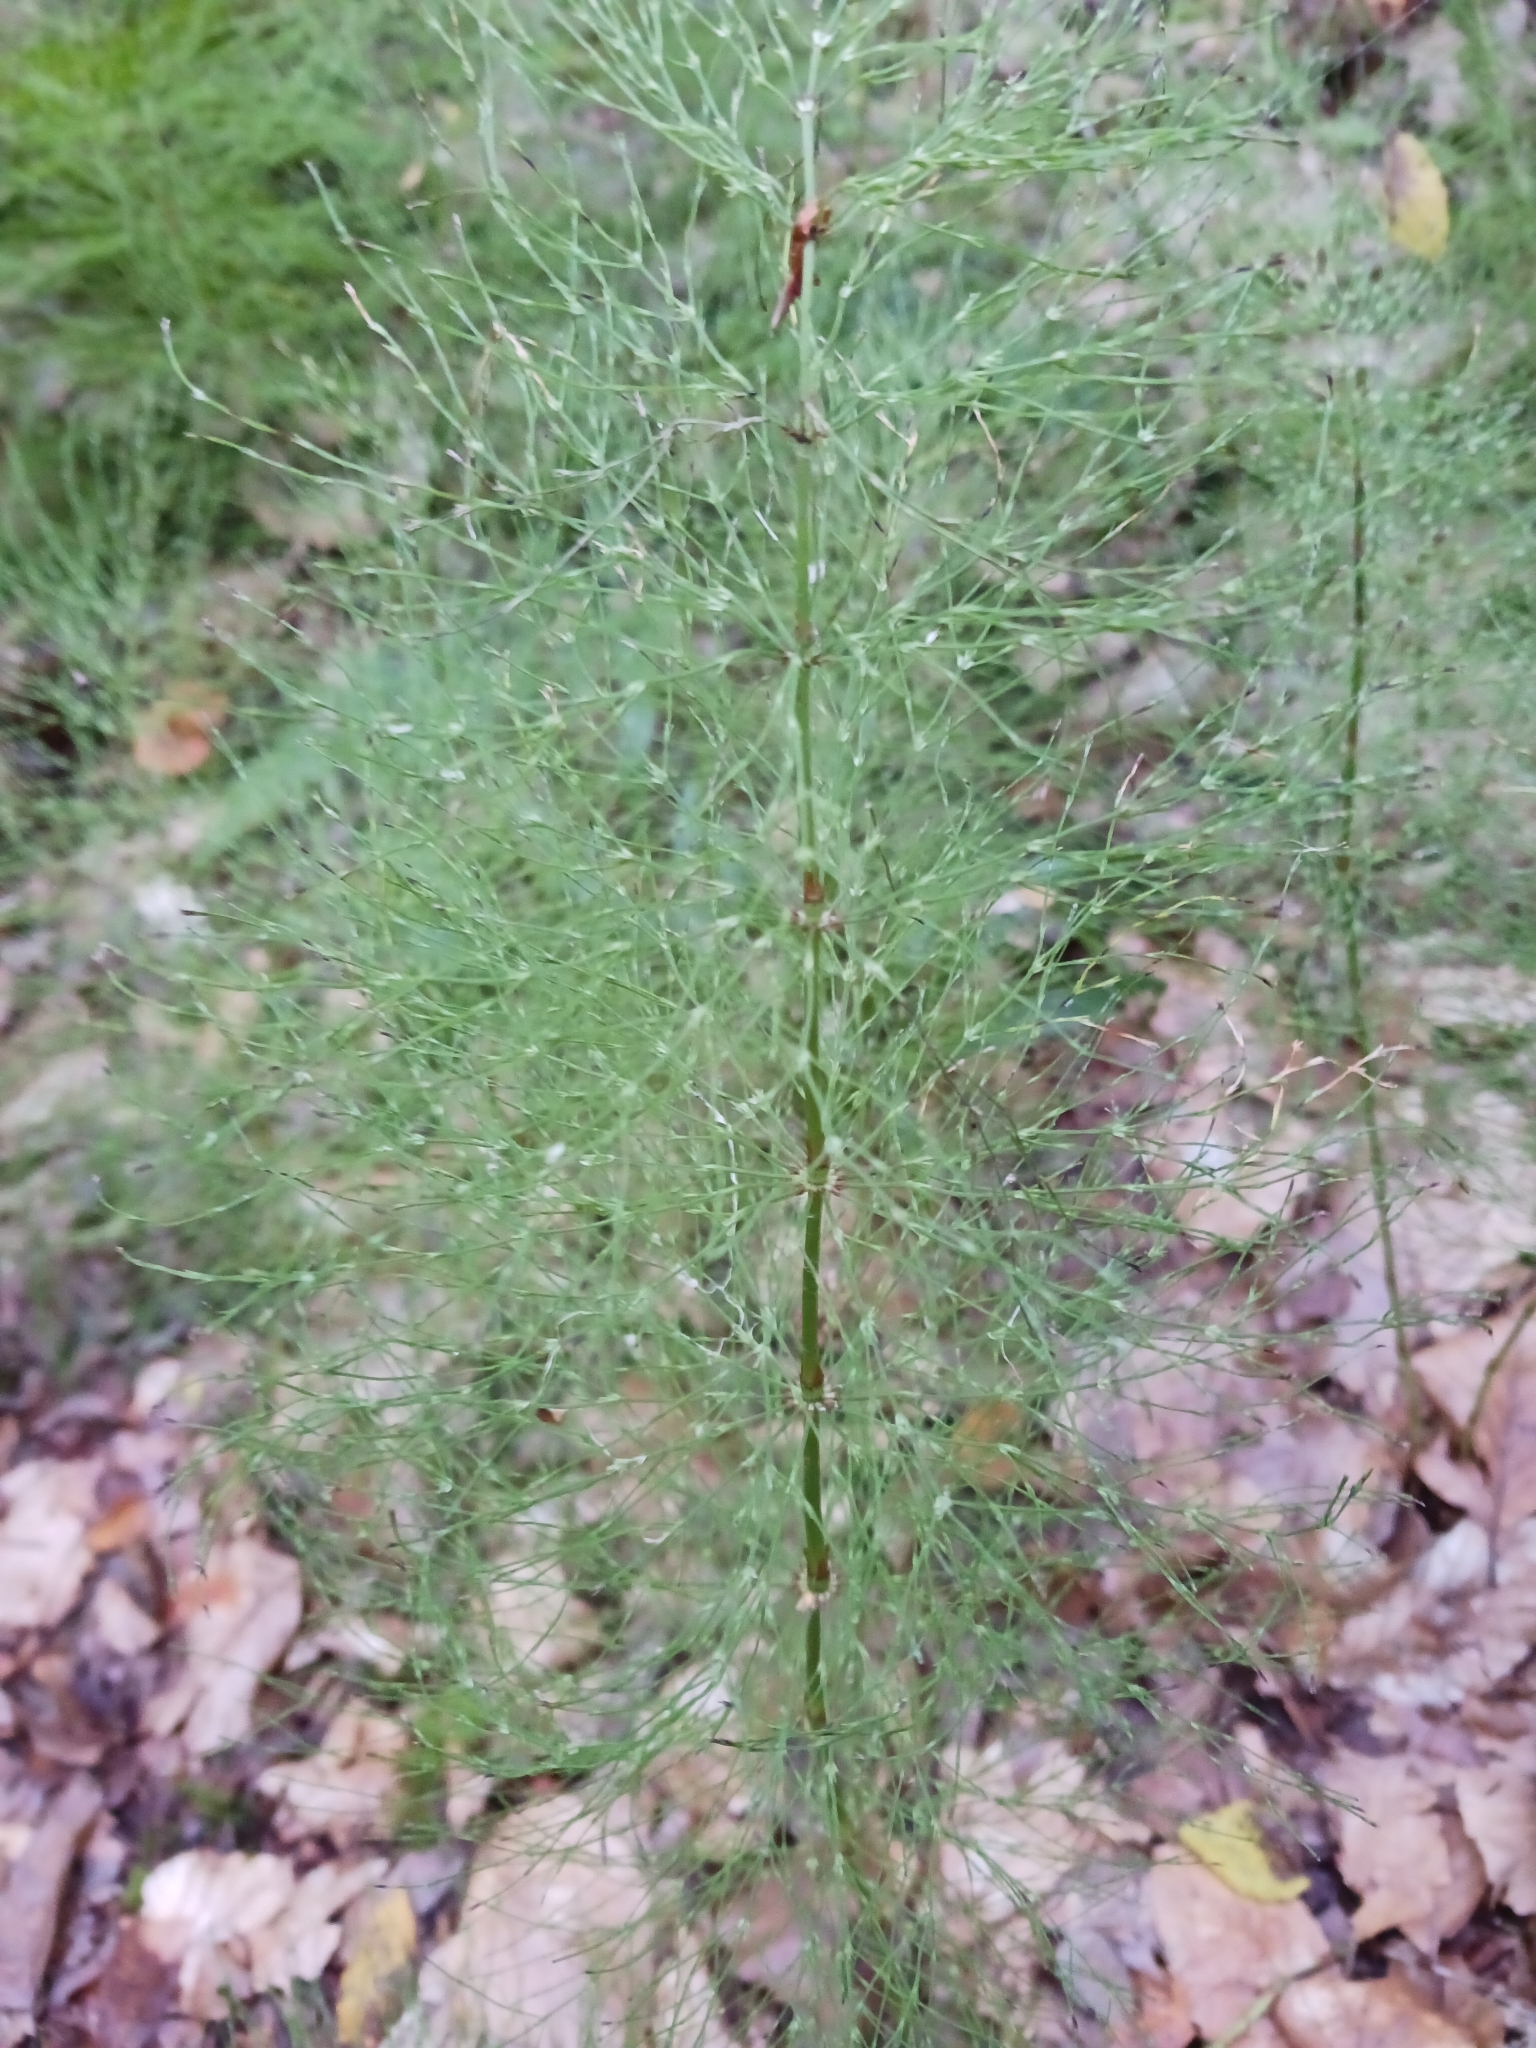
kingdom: Plantae
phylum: Tracheophyta
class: Polypodiopsida
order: Equisetales
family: Equisetaceae
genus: Equisetum
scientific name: Equisetum sylvaticum
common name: Wood horsetail
